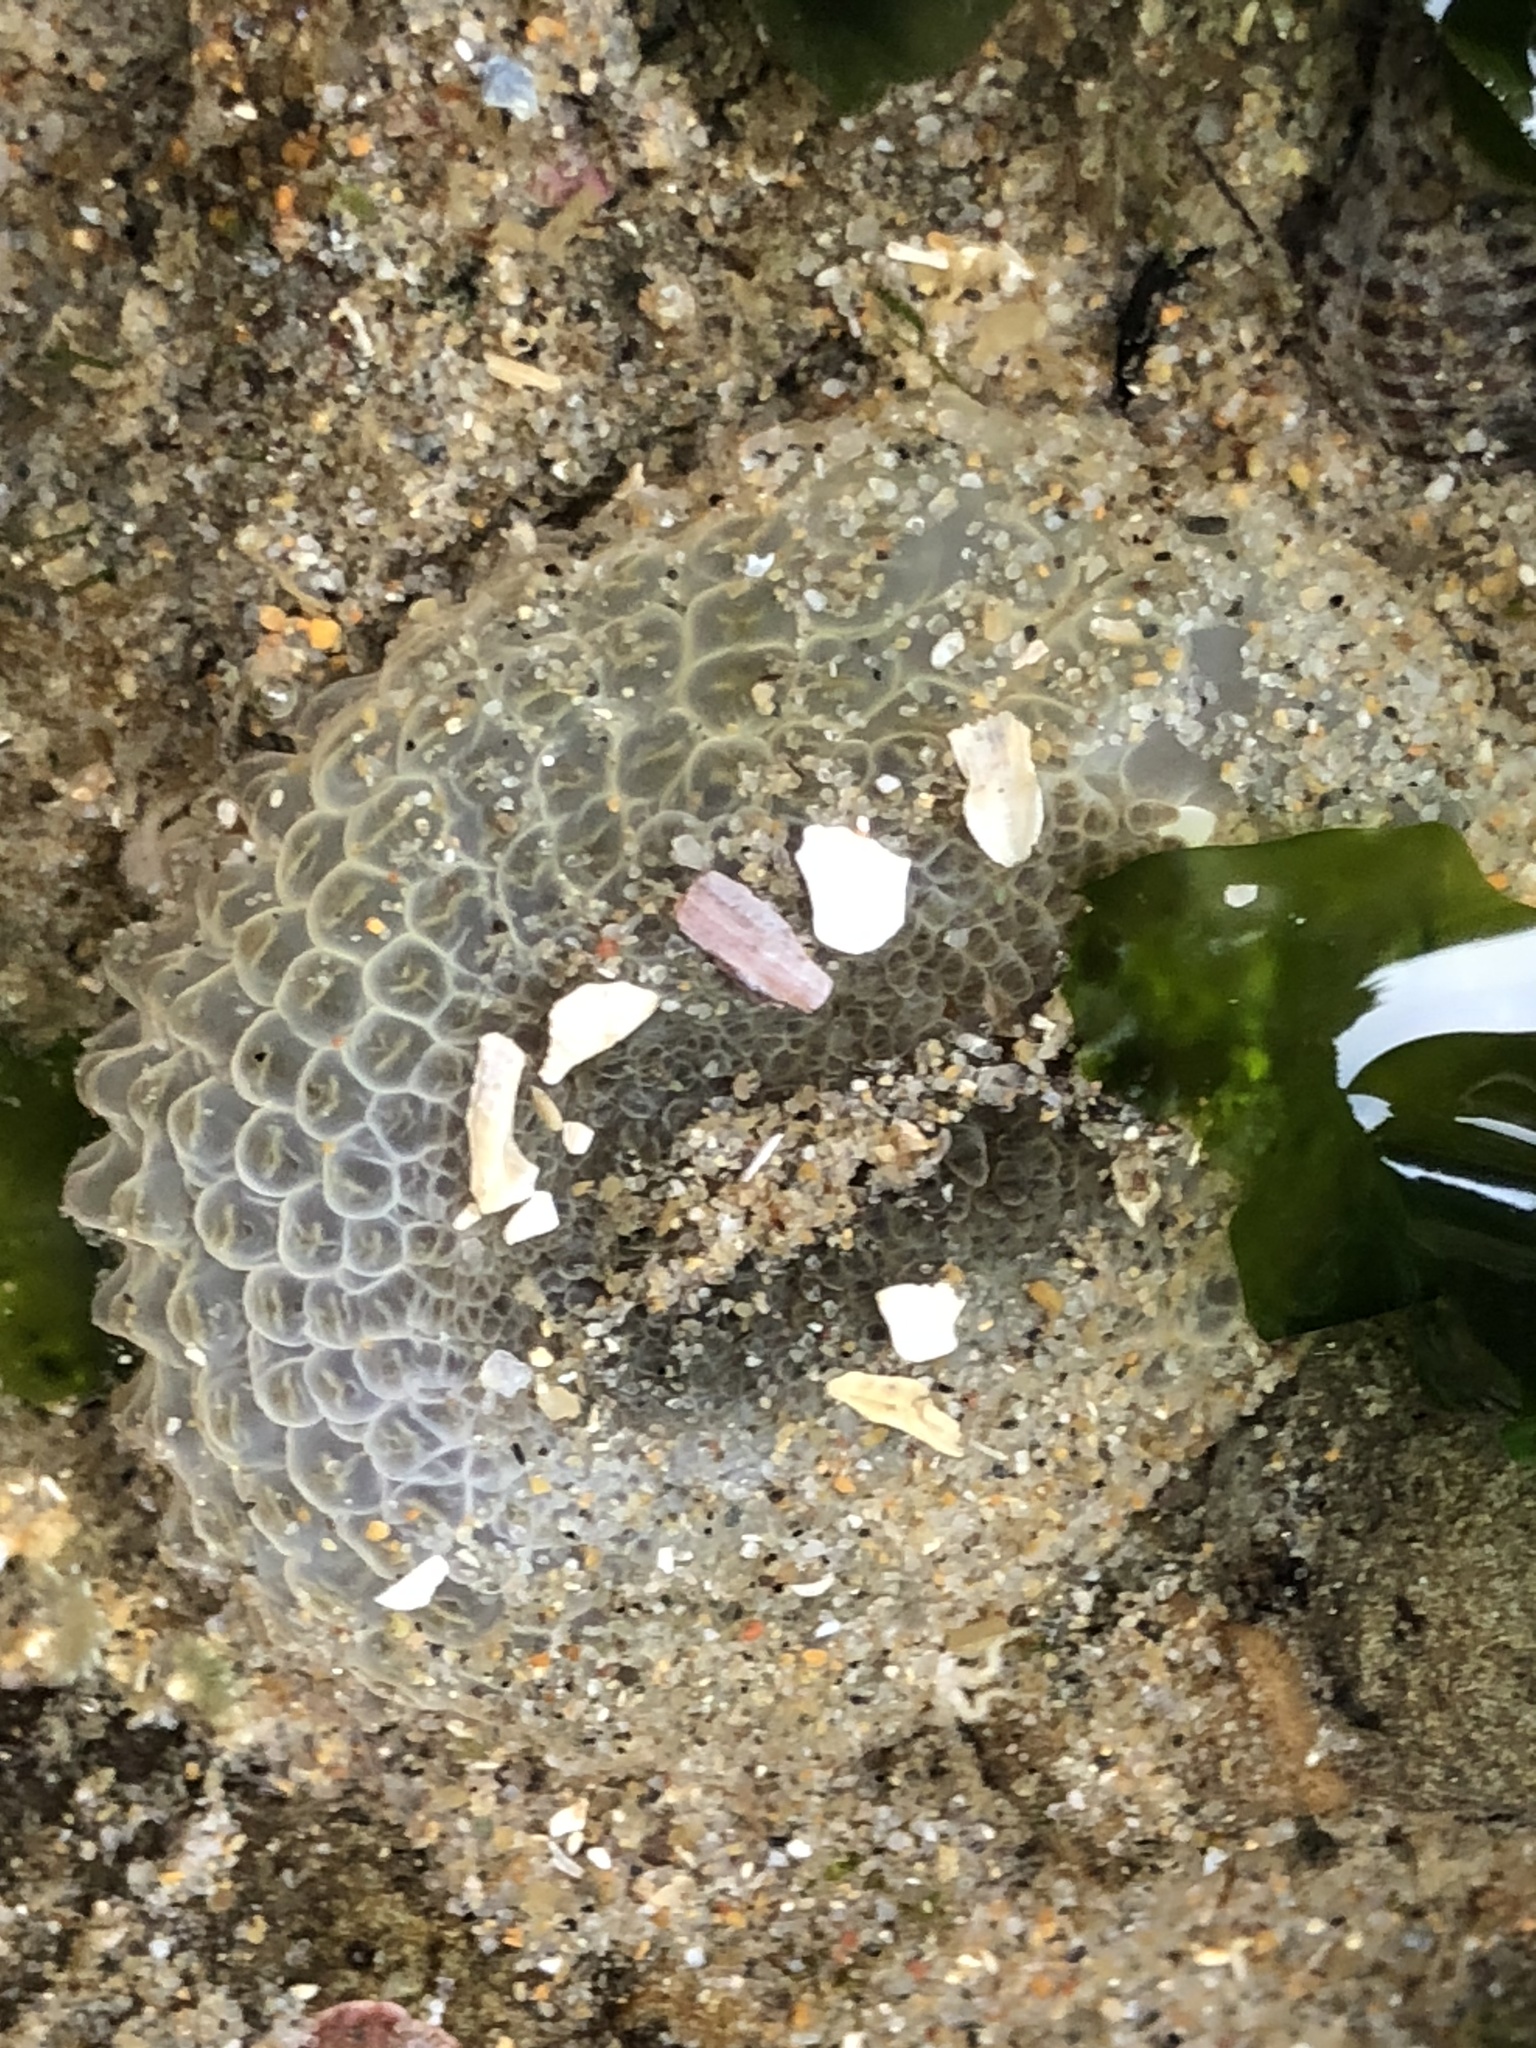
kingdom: Animalia
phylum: Cnidaria
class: Anthozoa
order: Actiniaria
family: Actiniidae
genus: Anthopleura
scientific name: Anthopleura elegantissima
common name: Clonal anemone
